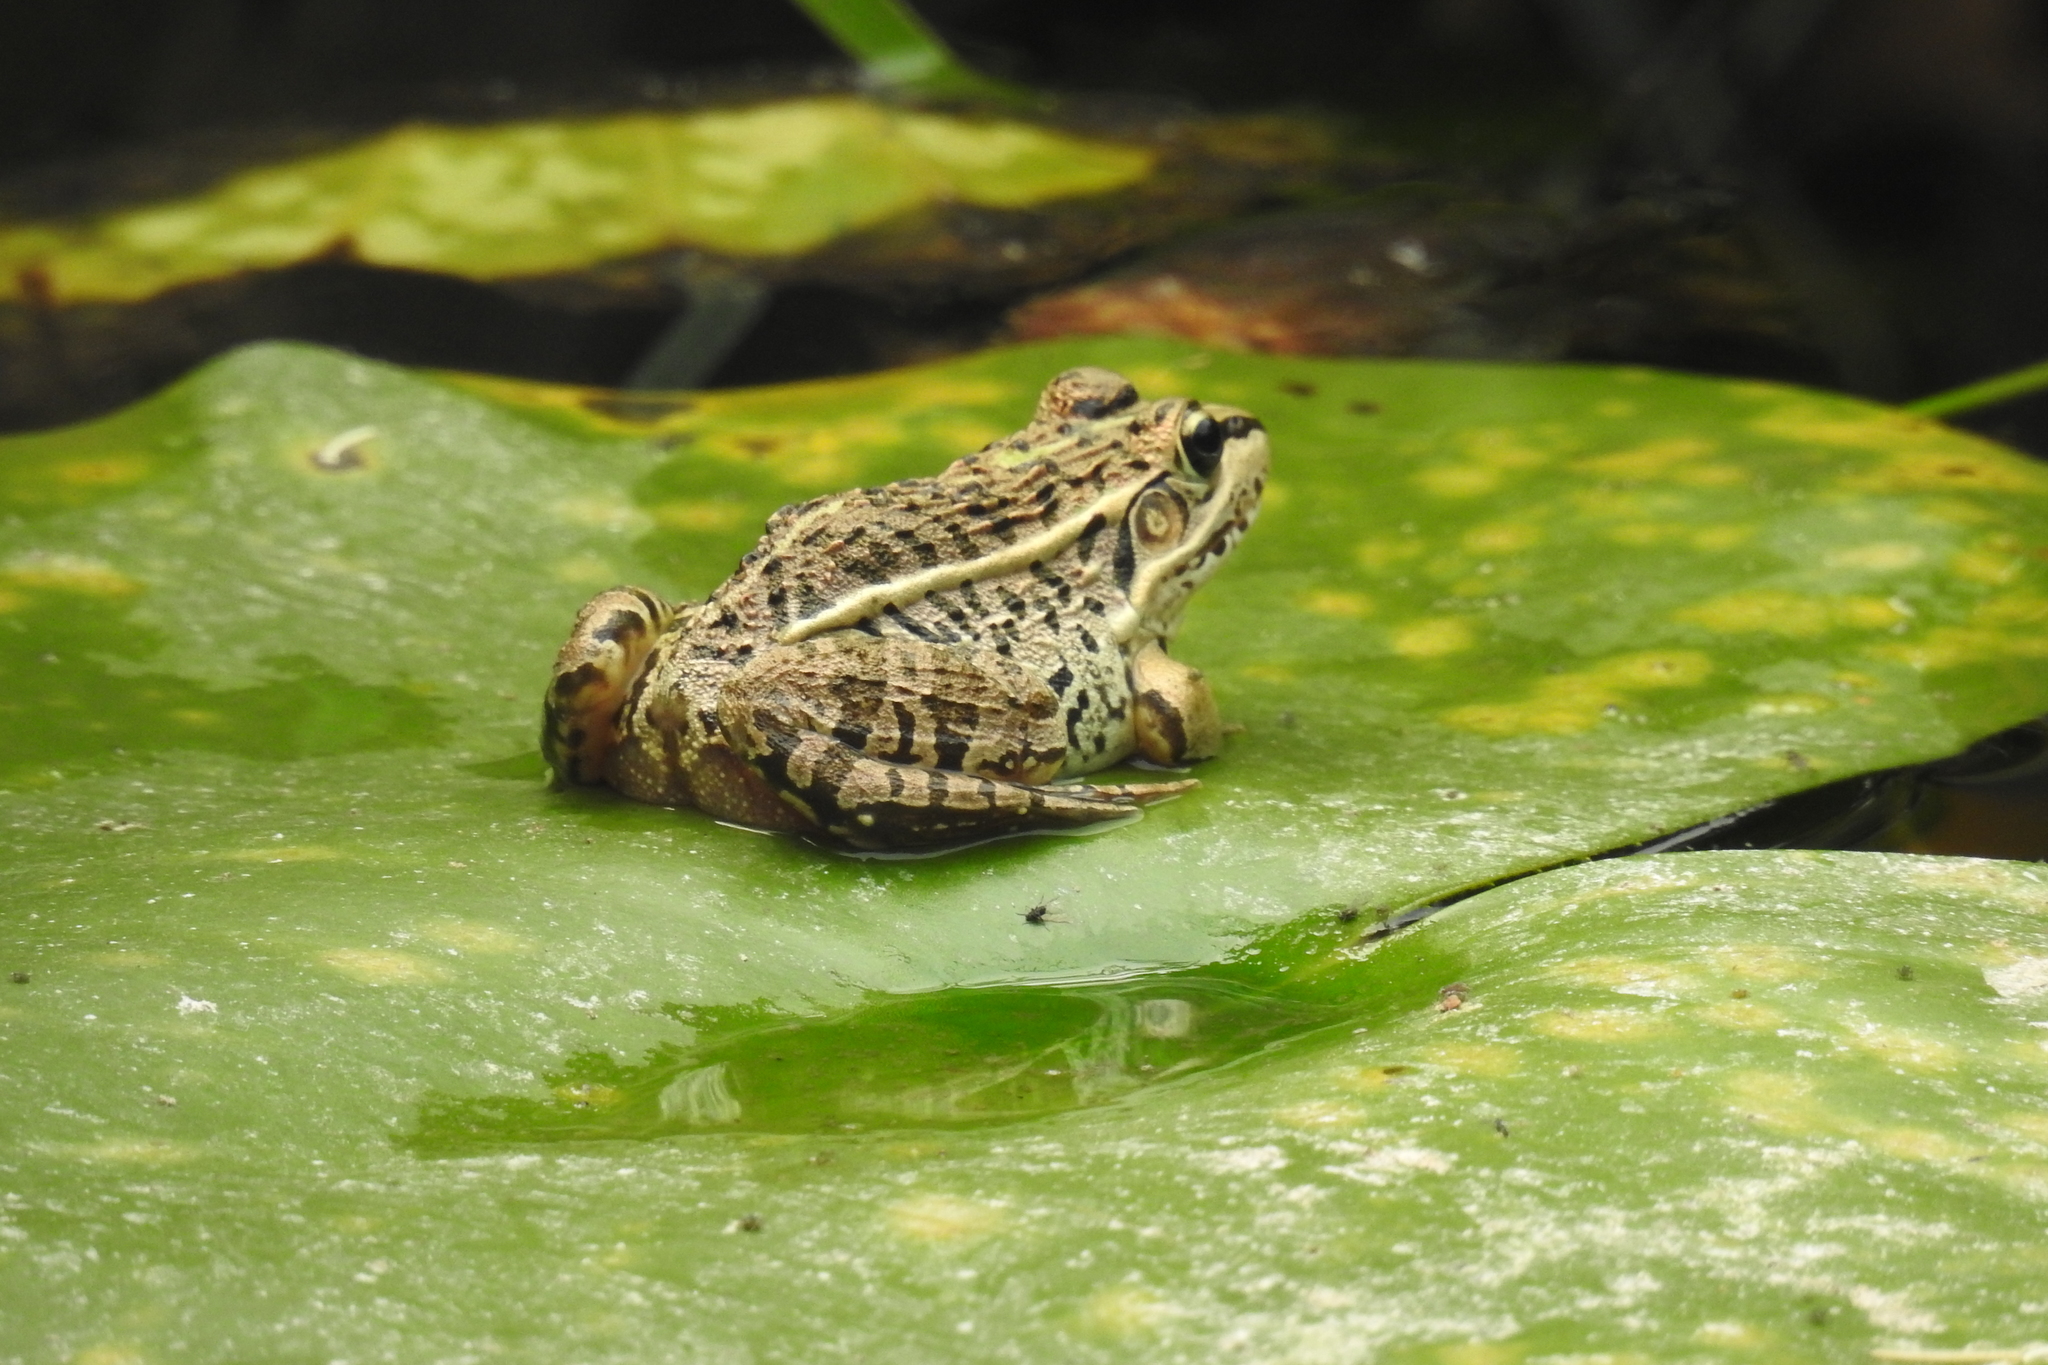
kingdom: Animalia
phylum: Chordata
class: Amphibia
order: Anura
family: Ranidae
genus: Pelophylax
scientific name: Pelophylax nigromaculatus
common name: Black-spotted pond frog
